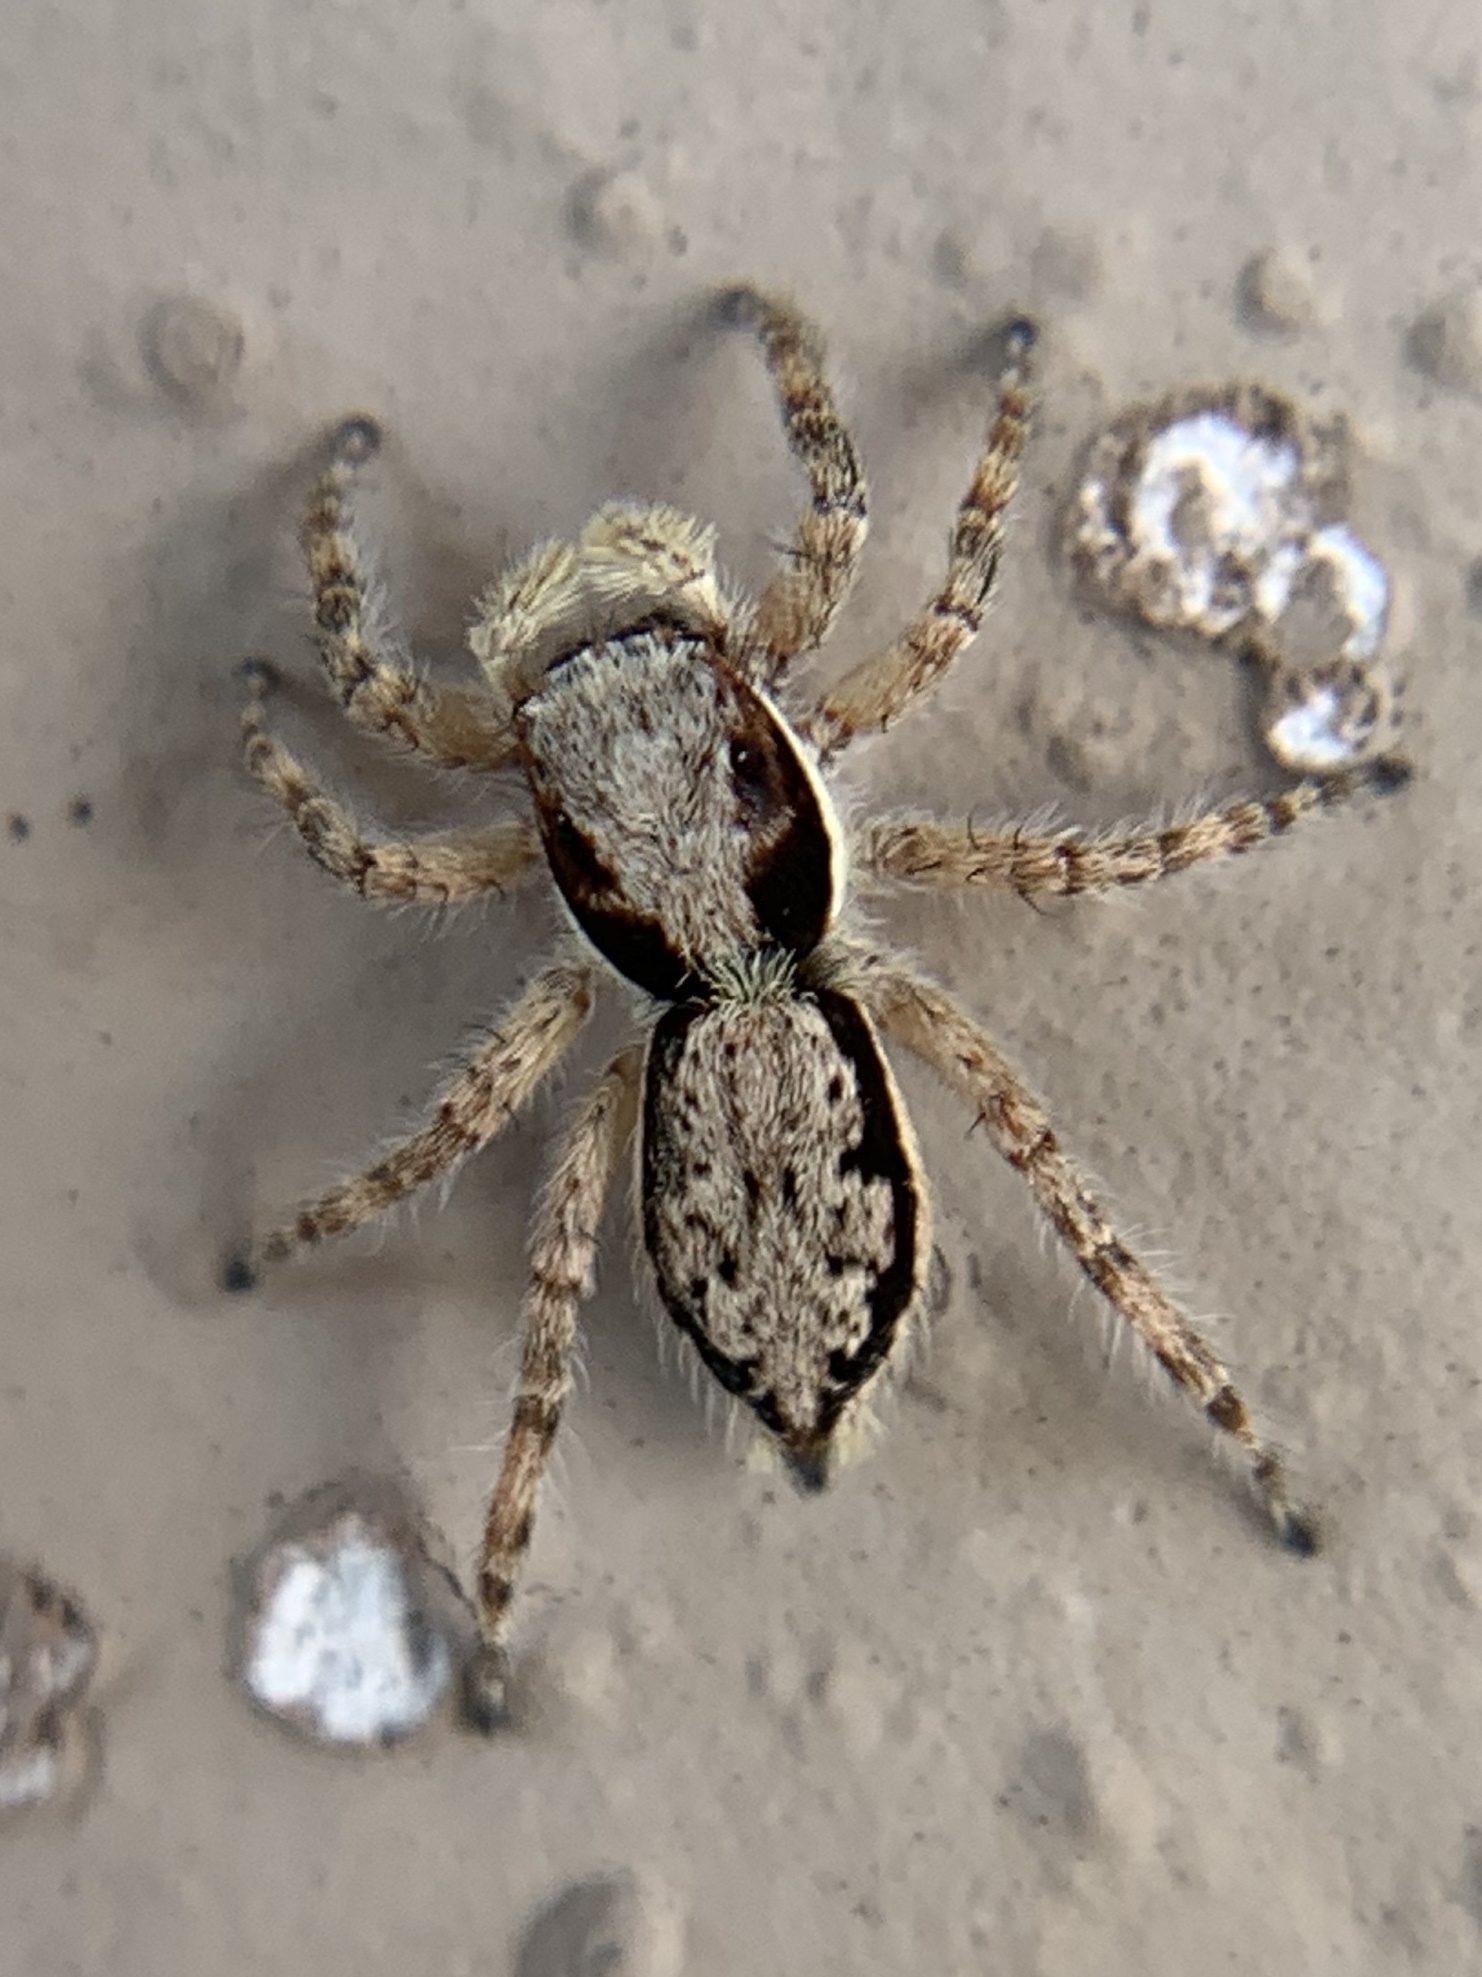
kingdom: Animalia
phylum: Arthropoda
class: Arachnida
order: Araneae
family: Salticidae
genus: Menemerus
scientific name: Menemerus bivittatus
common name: Gray wall jumper
